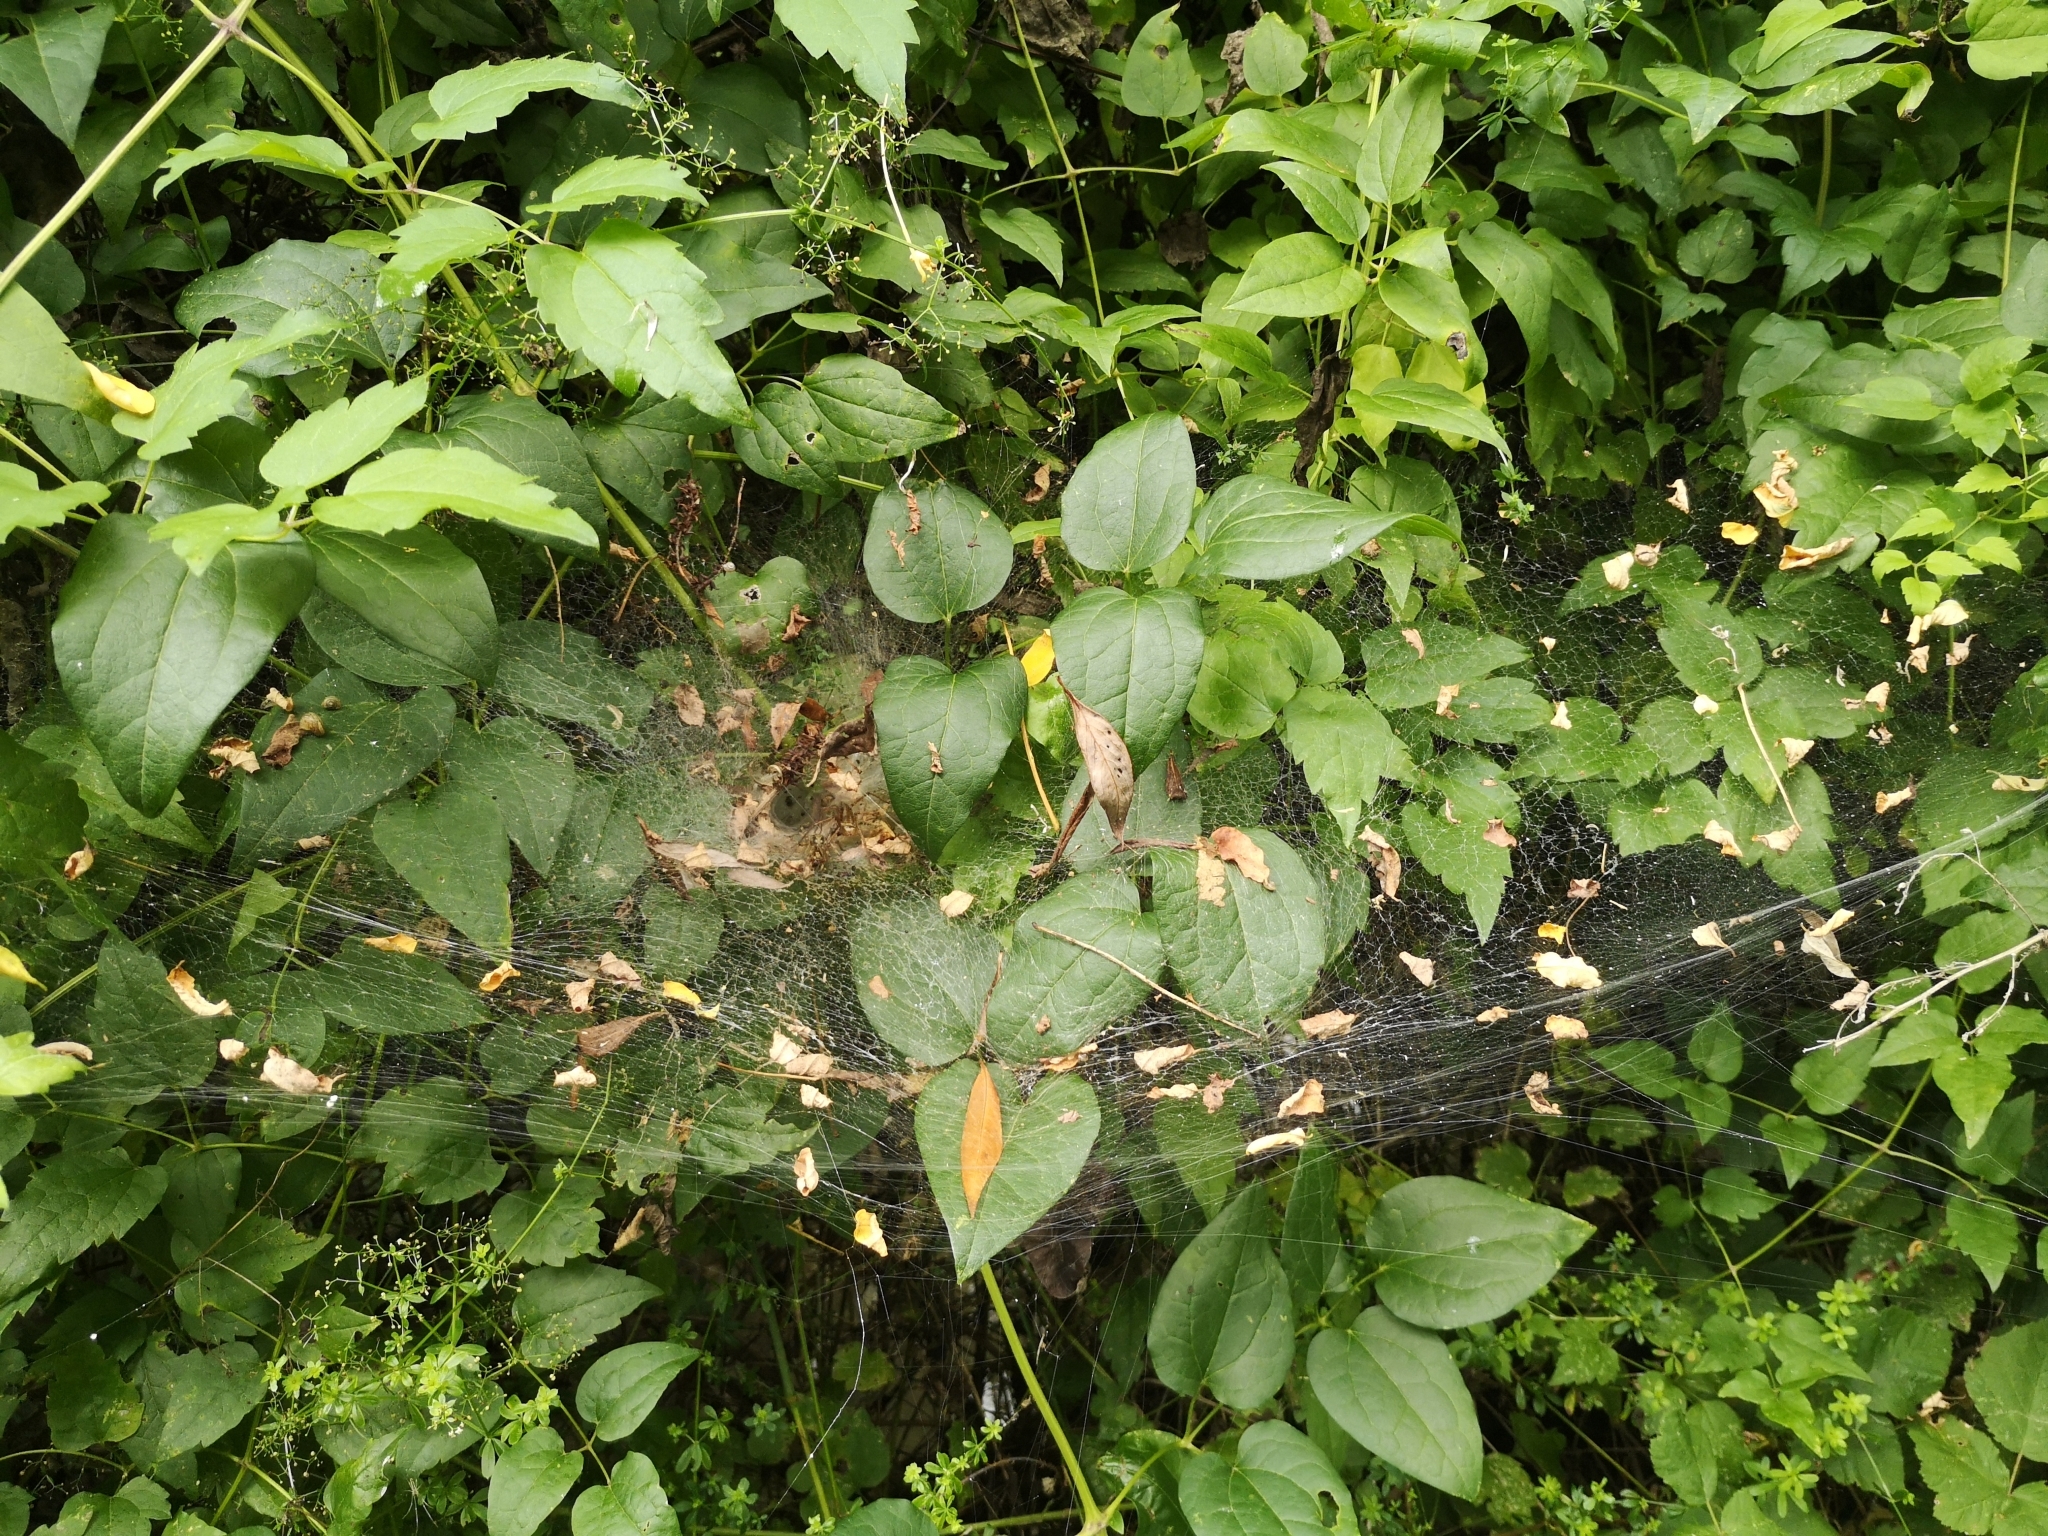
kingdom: Animalia
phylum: Arthropoda
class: Arachnida
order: Araneae
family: Agelenidae
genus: Agelena
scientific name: Agelena labyrinthica
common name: Labyrinth spider
